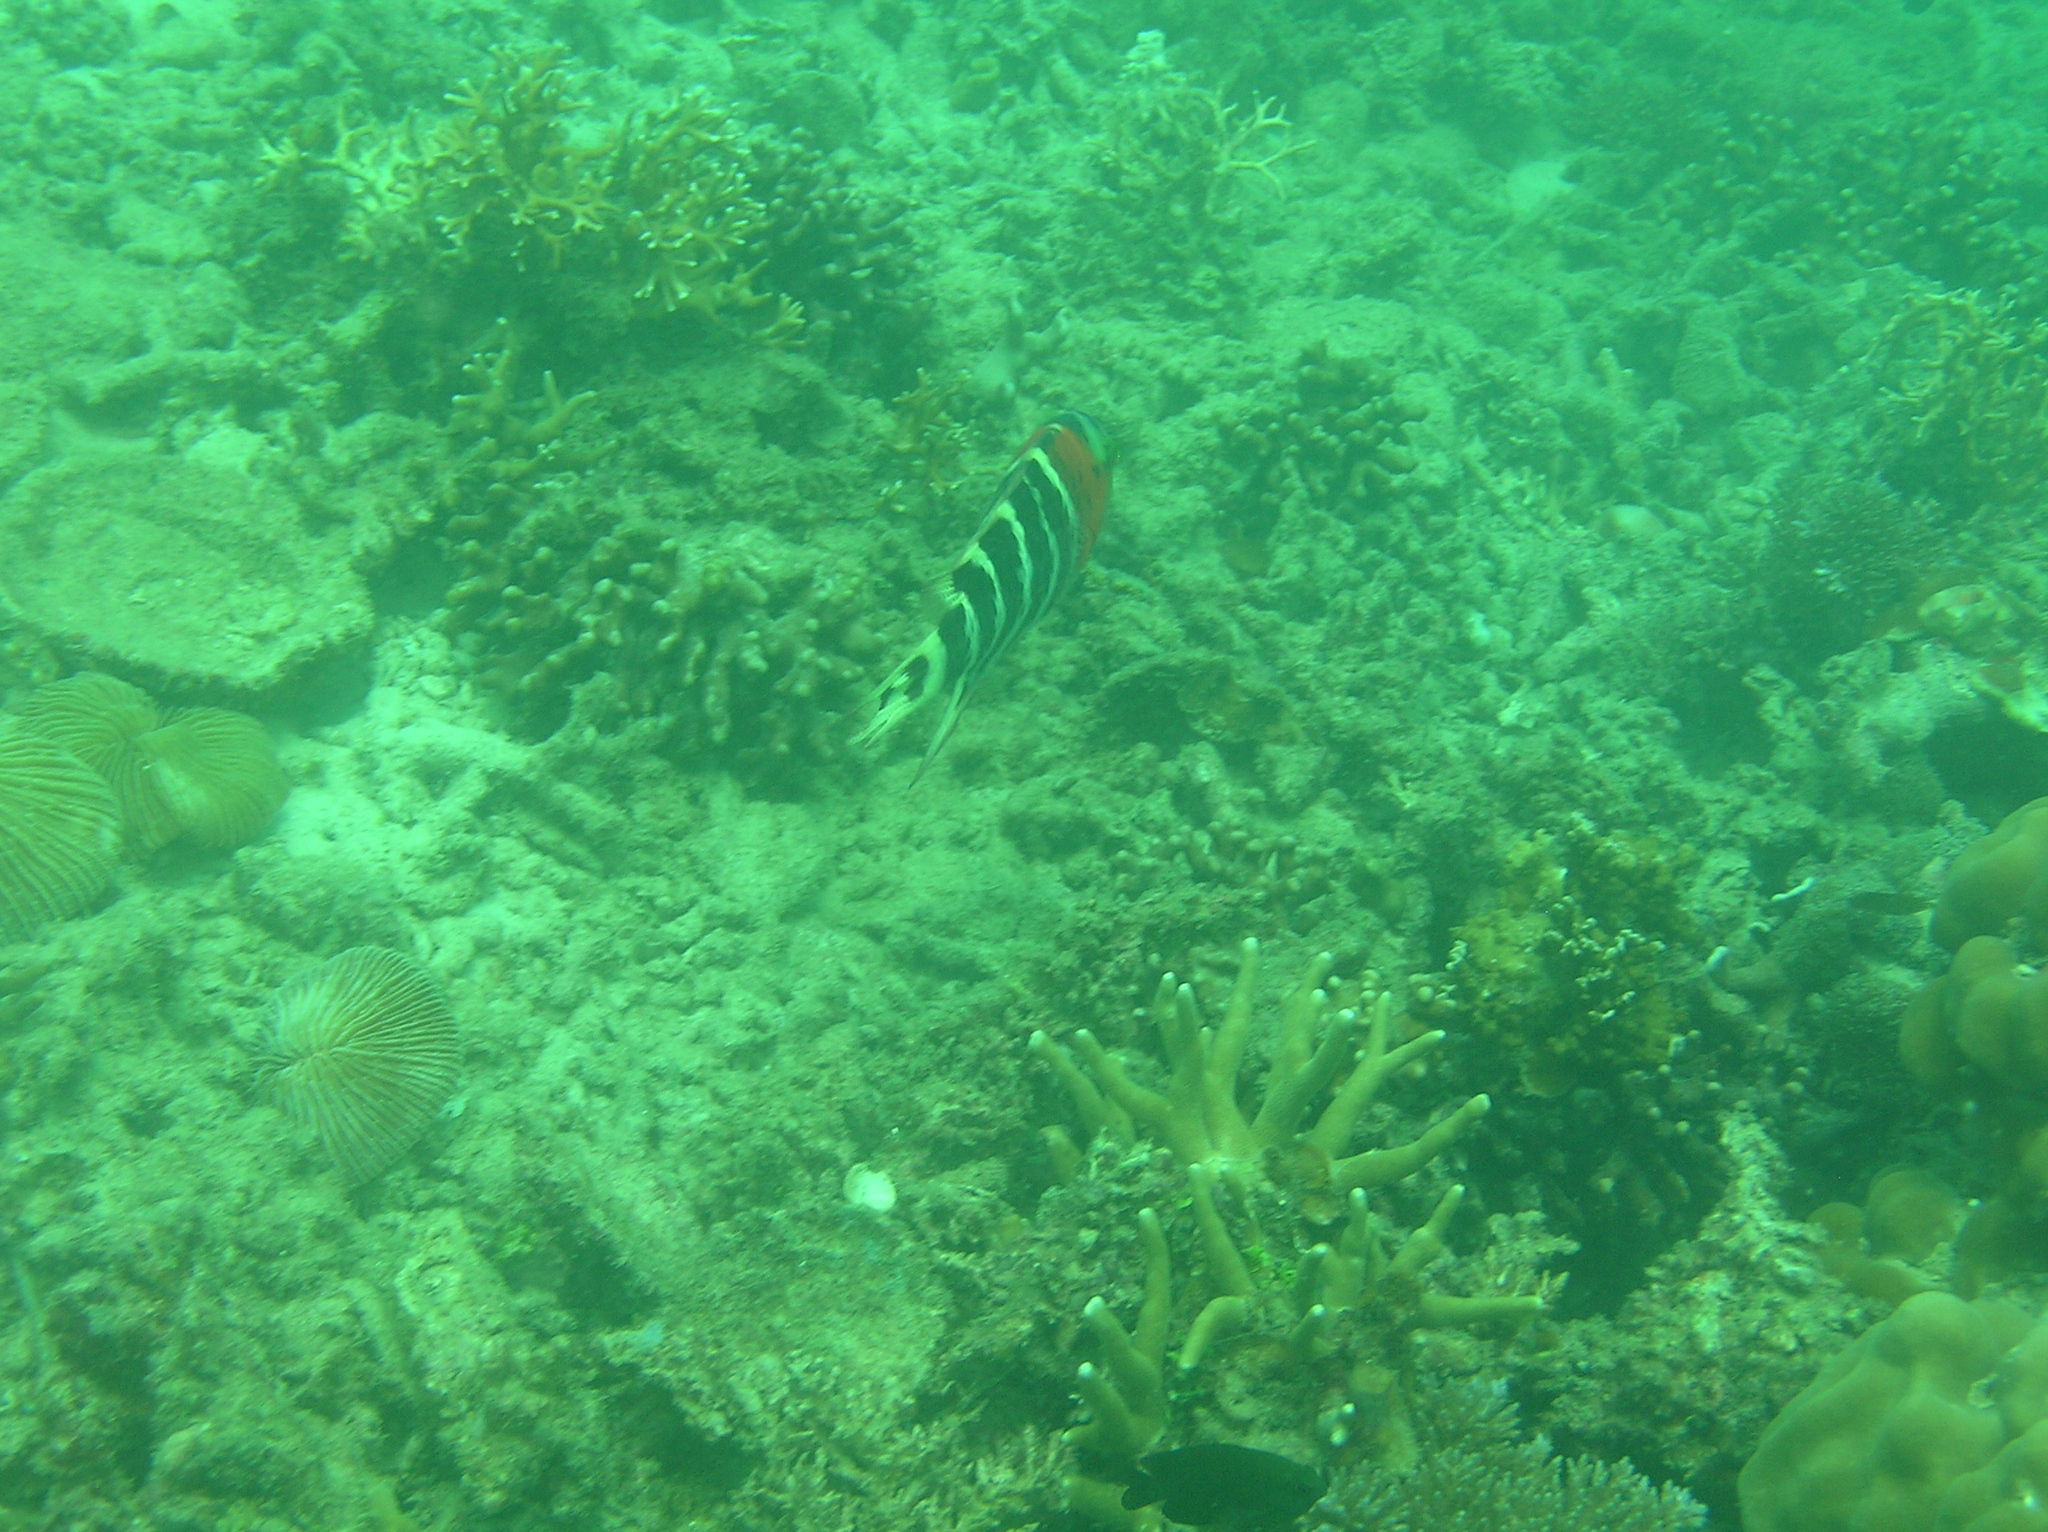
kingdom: Animalia
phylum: Chordata
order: Perciformes
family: Labridae
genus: Cheilinus
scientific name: Cheilinus fasciatus
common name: Red-breasted wrasse
